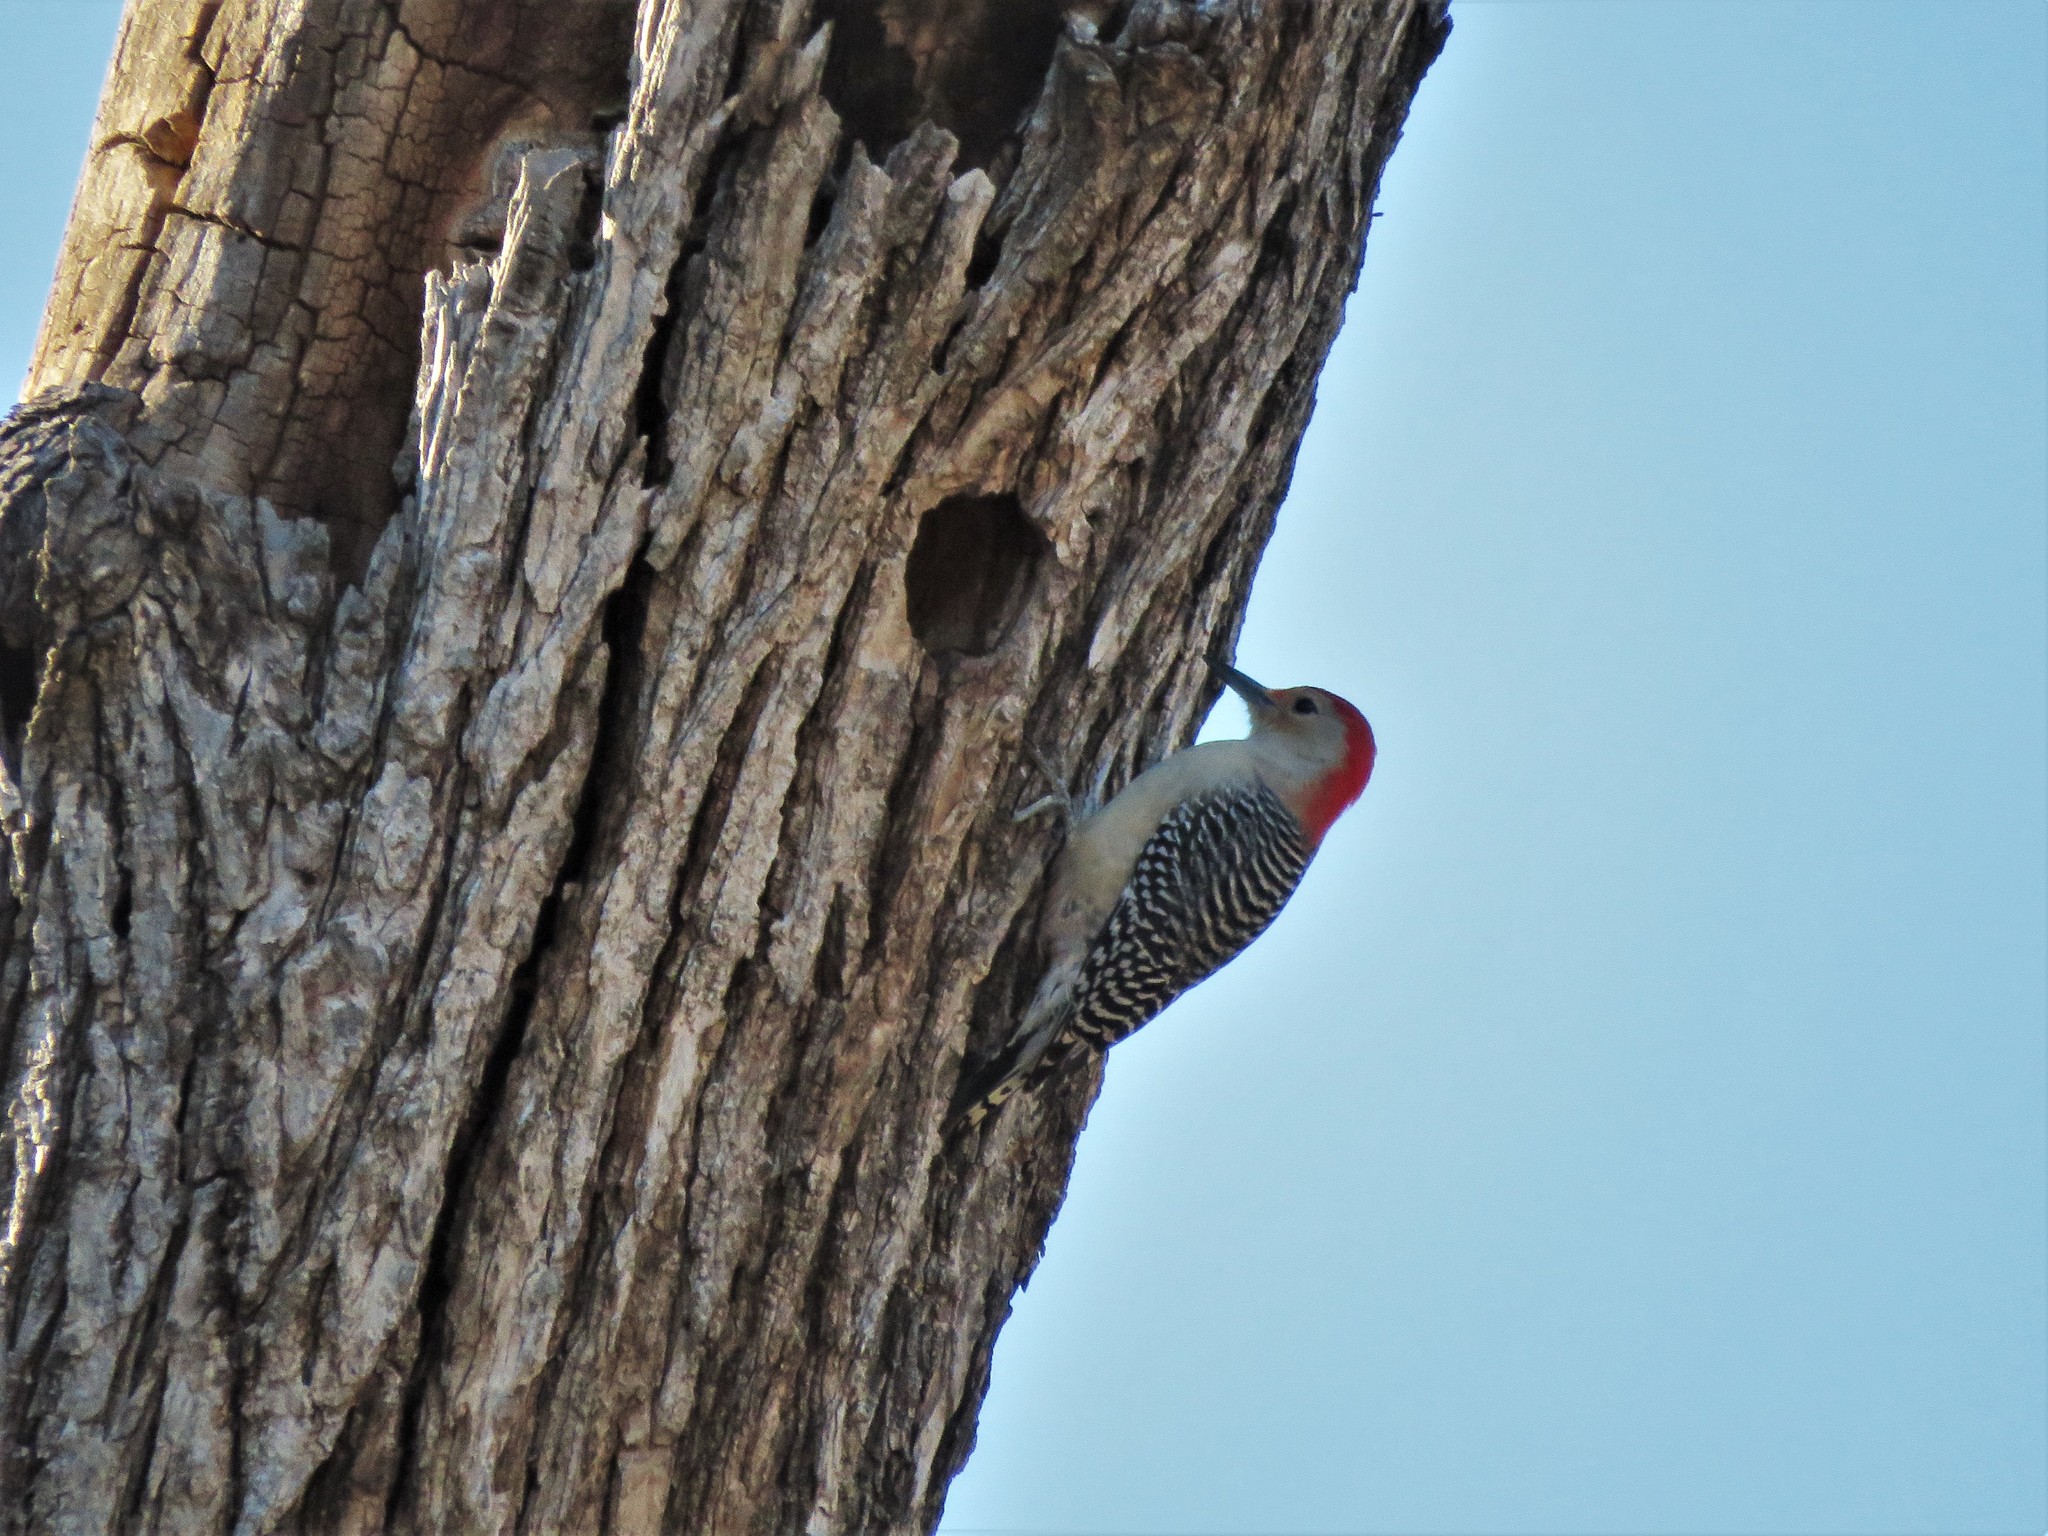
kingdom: Animalia
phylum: Chordata
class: Aves
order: Piciformes
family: Picidae
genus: Melanerpes
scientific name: Melanerpes carolinus
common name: Red-bellied woodpecker
